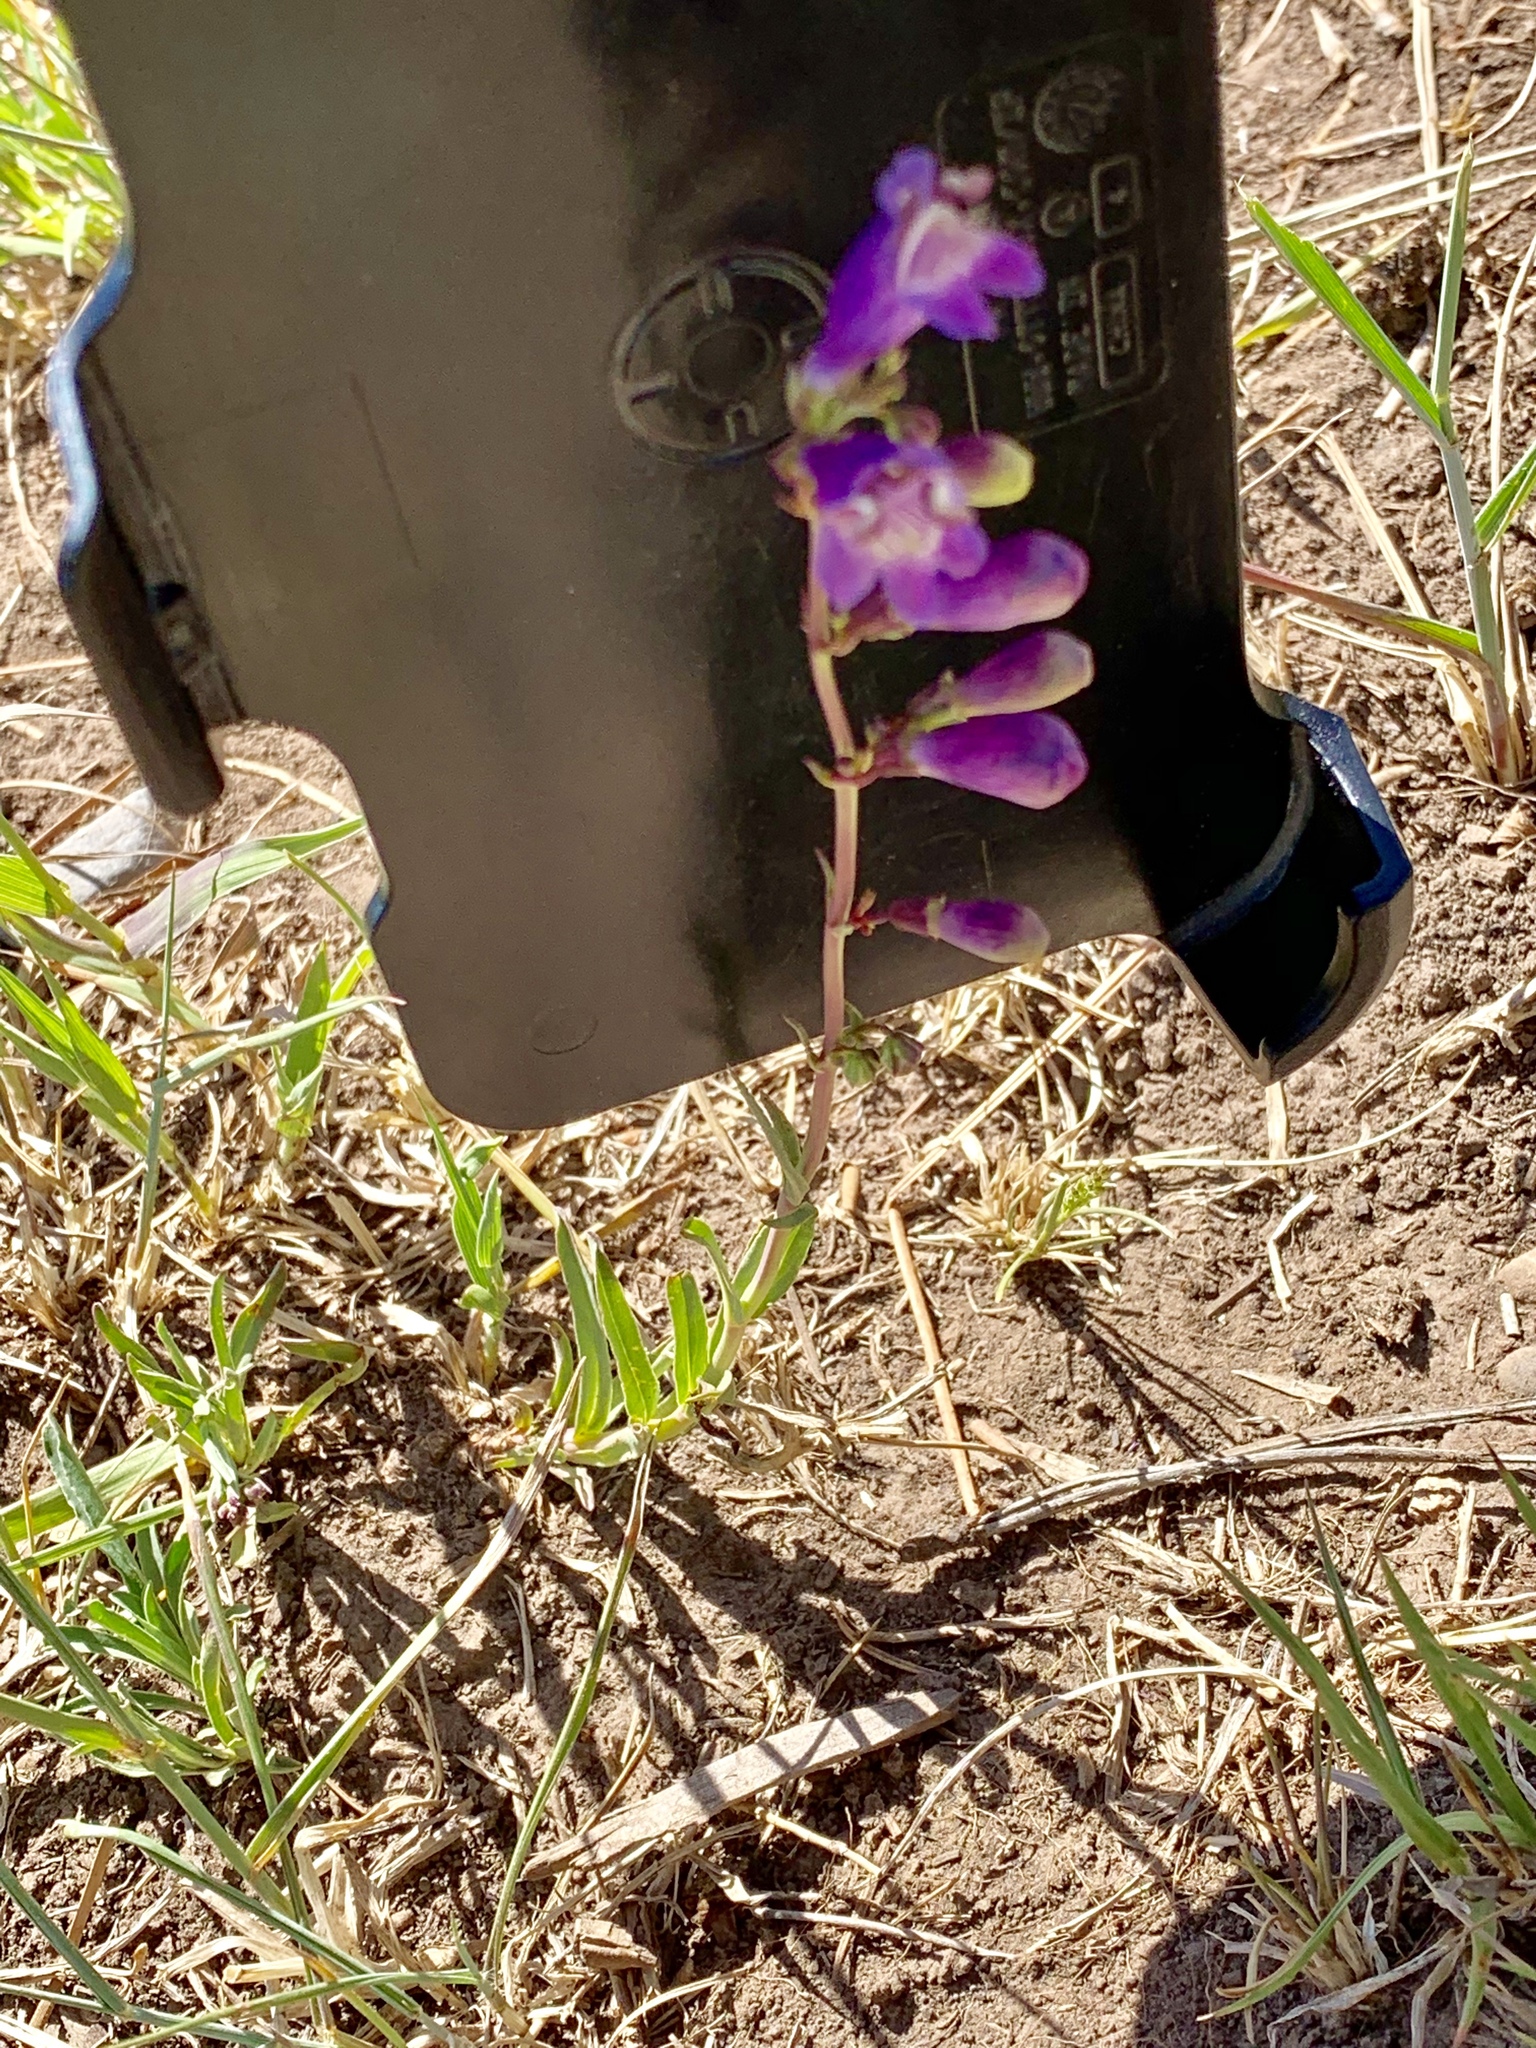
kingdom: Plantae
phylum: Tracheophyta
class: Magnoliopsida
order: Lamiales
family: Plantaginaceae
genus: Penstemon
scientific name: Penstemon neomexicanus
